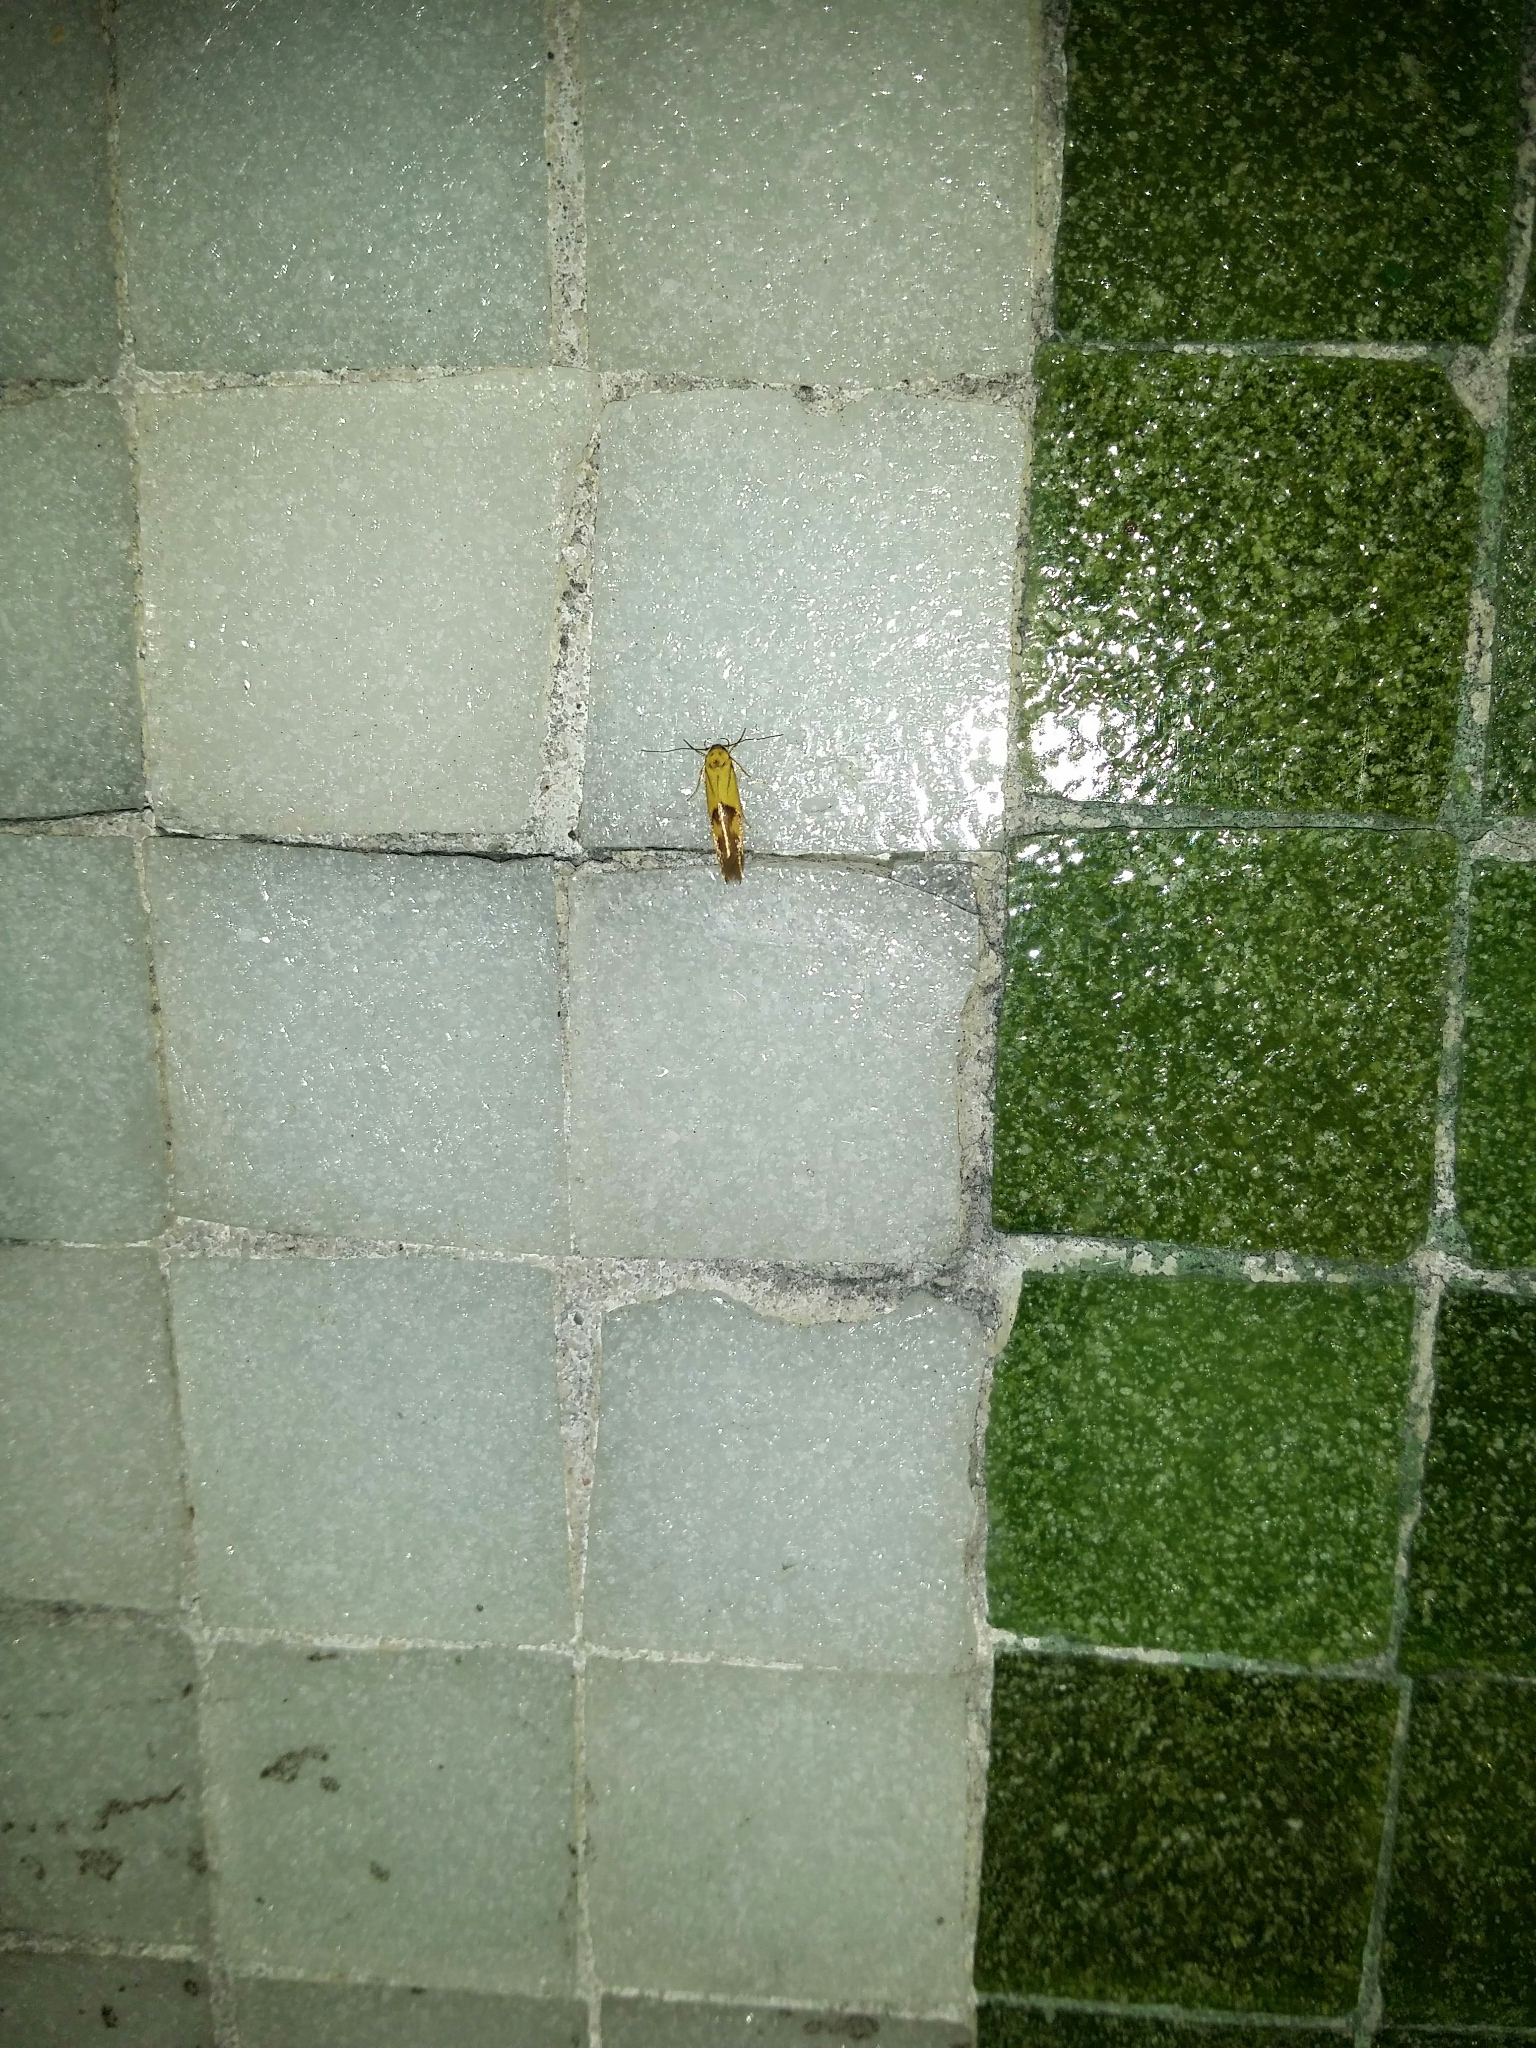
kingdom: Animalia
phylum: Arthropoda
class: Insecta
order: Lepidoptera
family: Stathmopodidae
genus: Stathmopoda
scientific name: Stathmopoda auriferella
